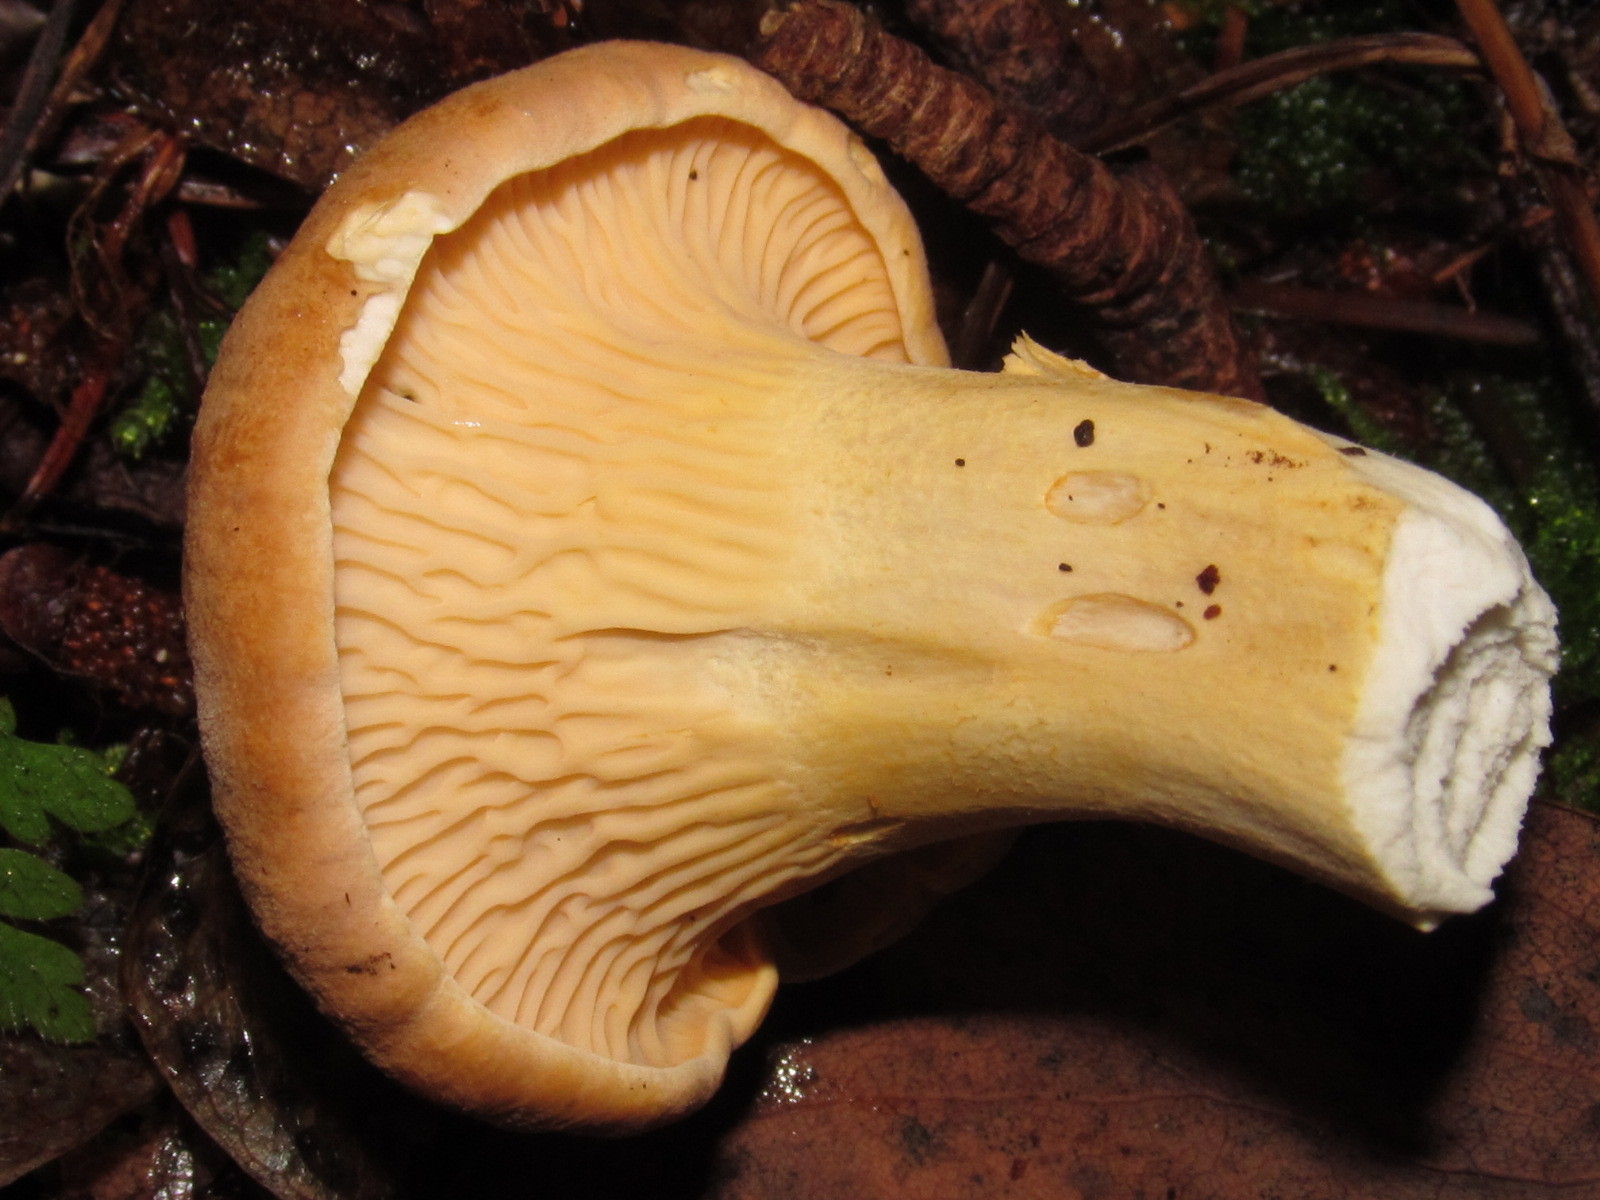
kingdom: Fungi
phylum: Basidiomycota
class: Agaricomycetes
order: Cantharellales
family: Hydnaceae
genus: Cantharellus
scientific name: Cantharellus formosus
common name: Pacific golden chanterelle
